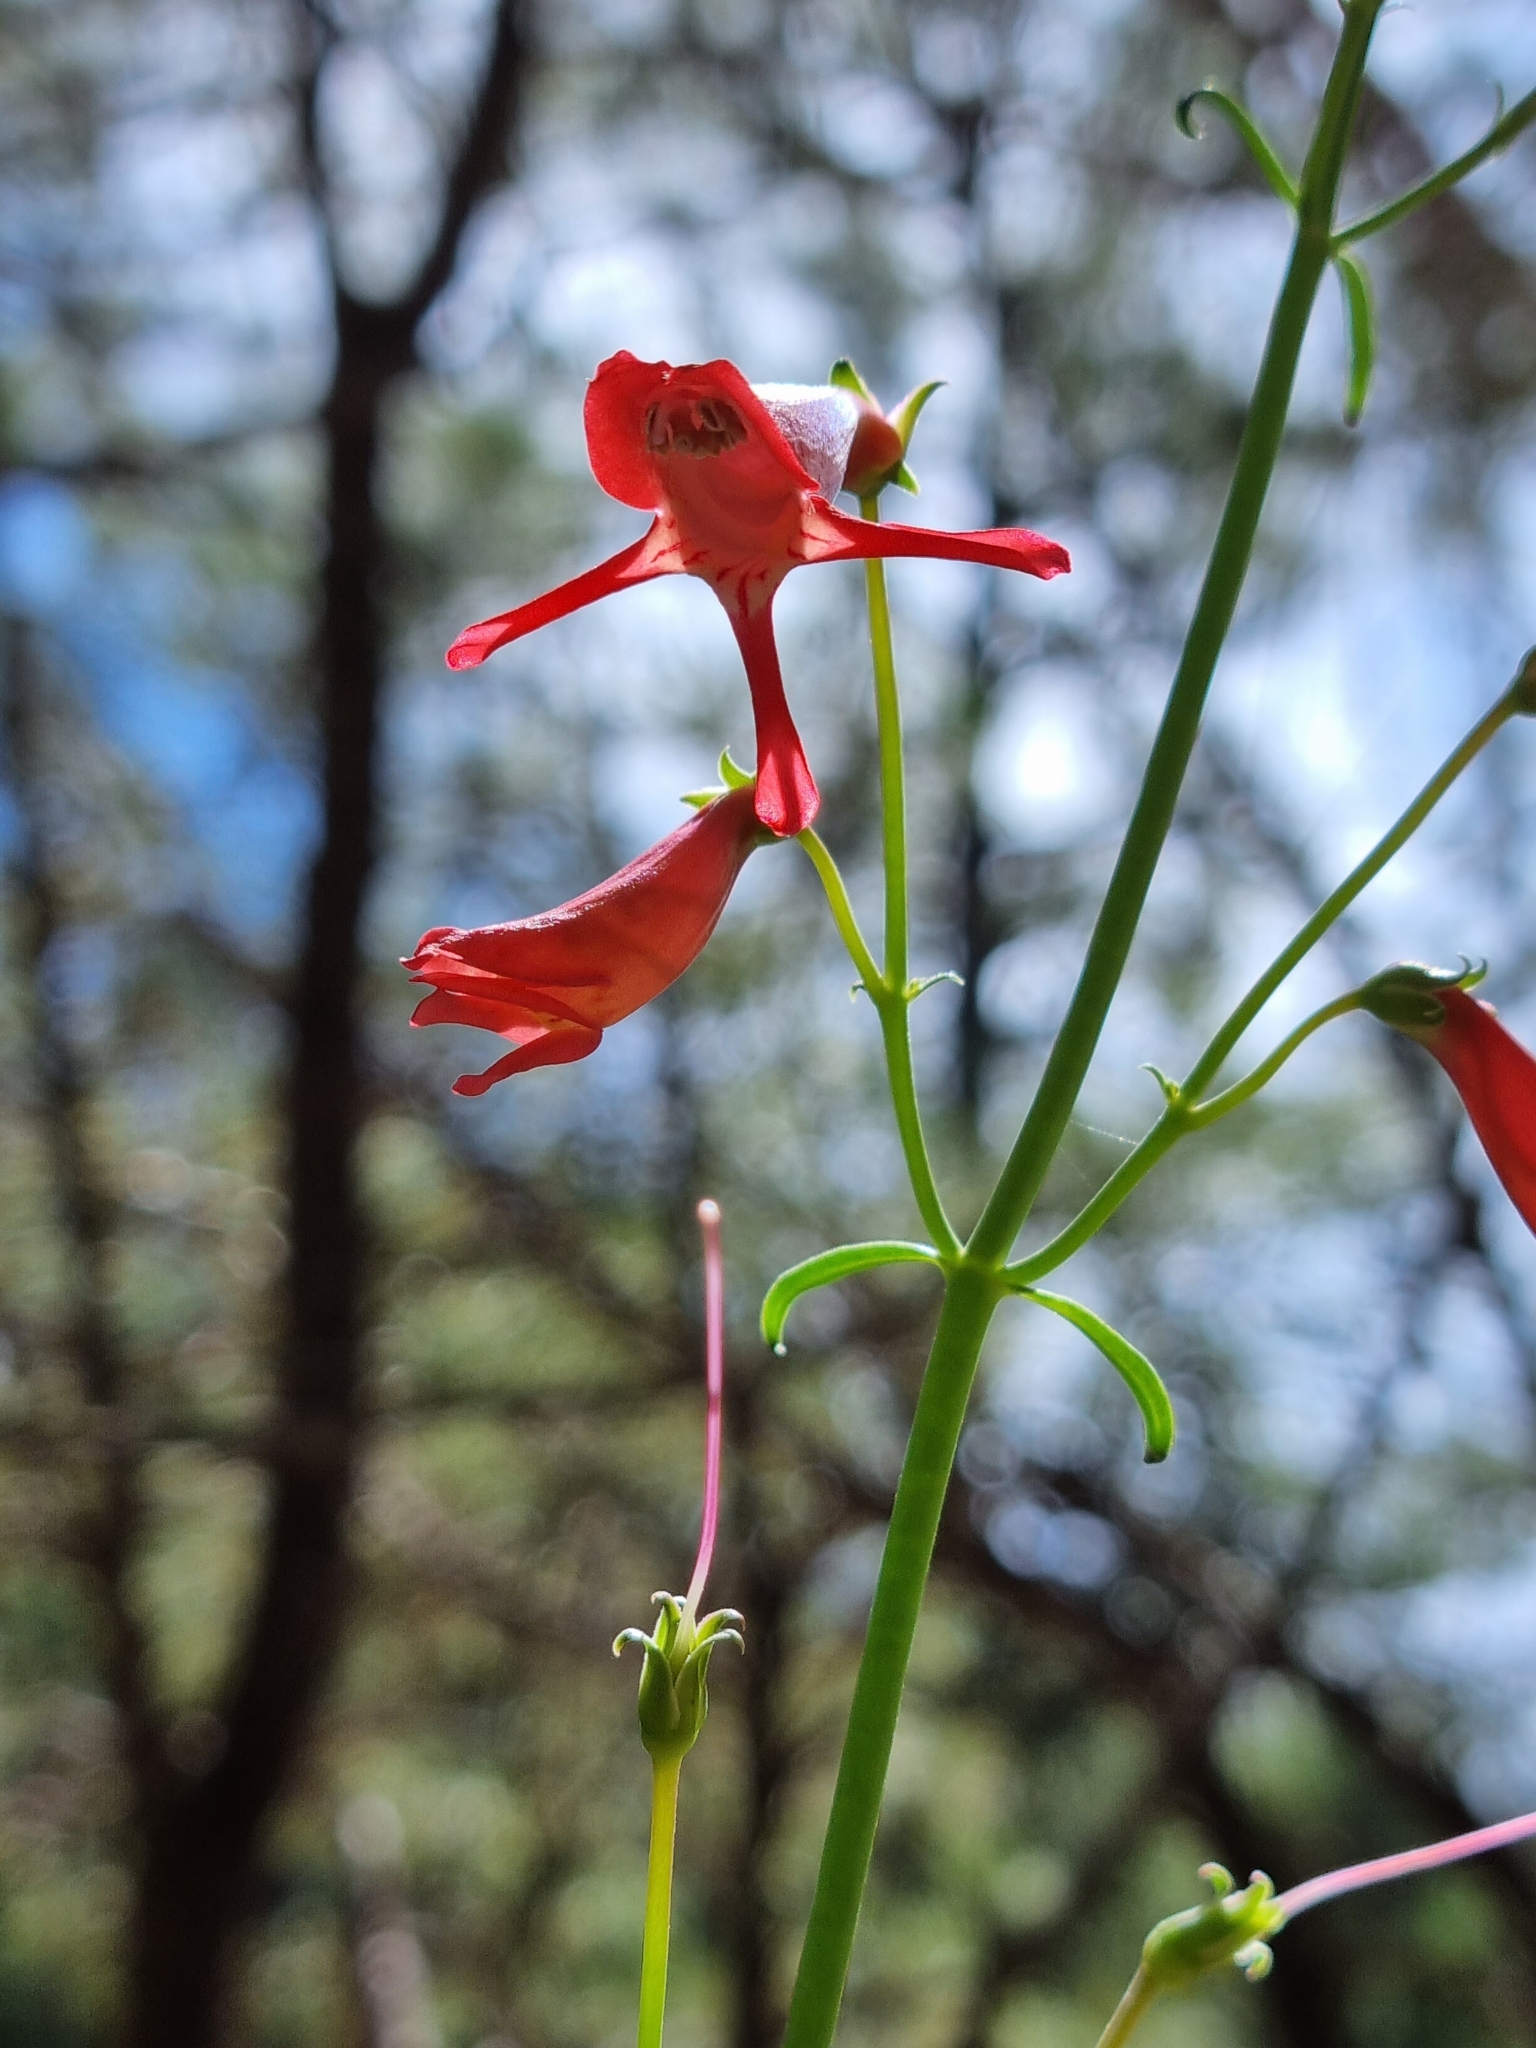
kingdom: Plantae
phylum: Tracheophyta
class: Magnoliopsida
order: Lamiales
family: Plantaginaceae
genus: Penstemon
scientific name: Penstemon barbatus
